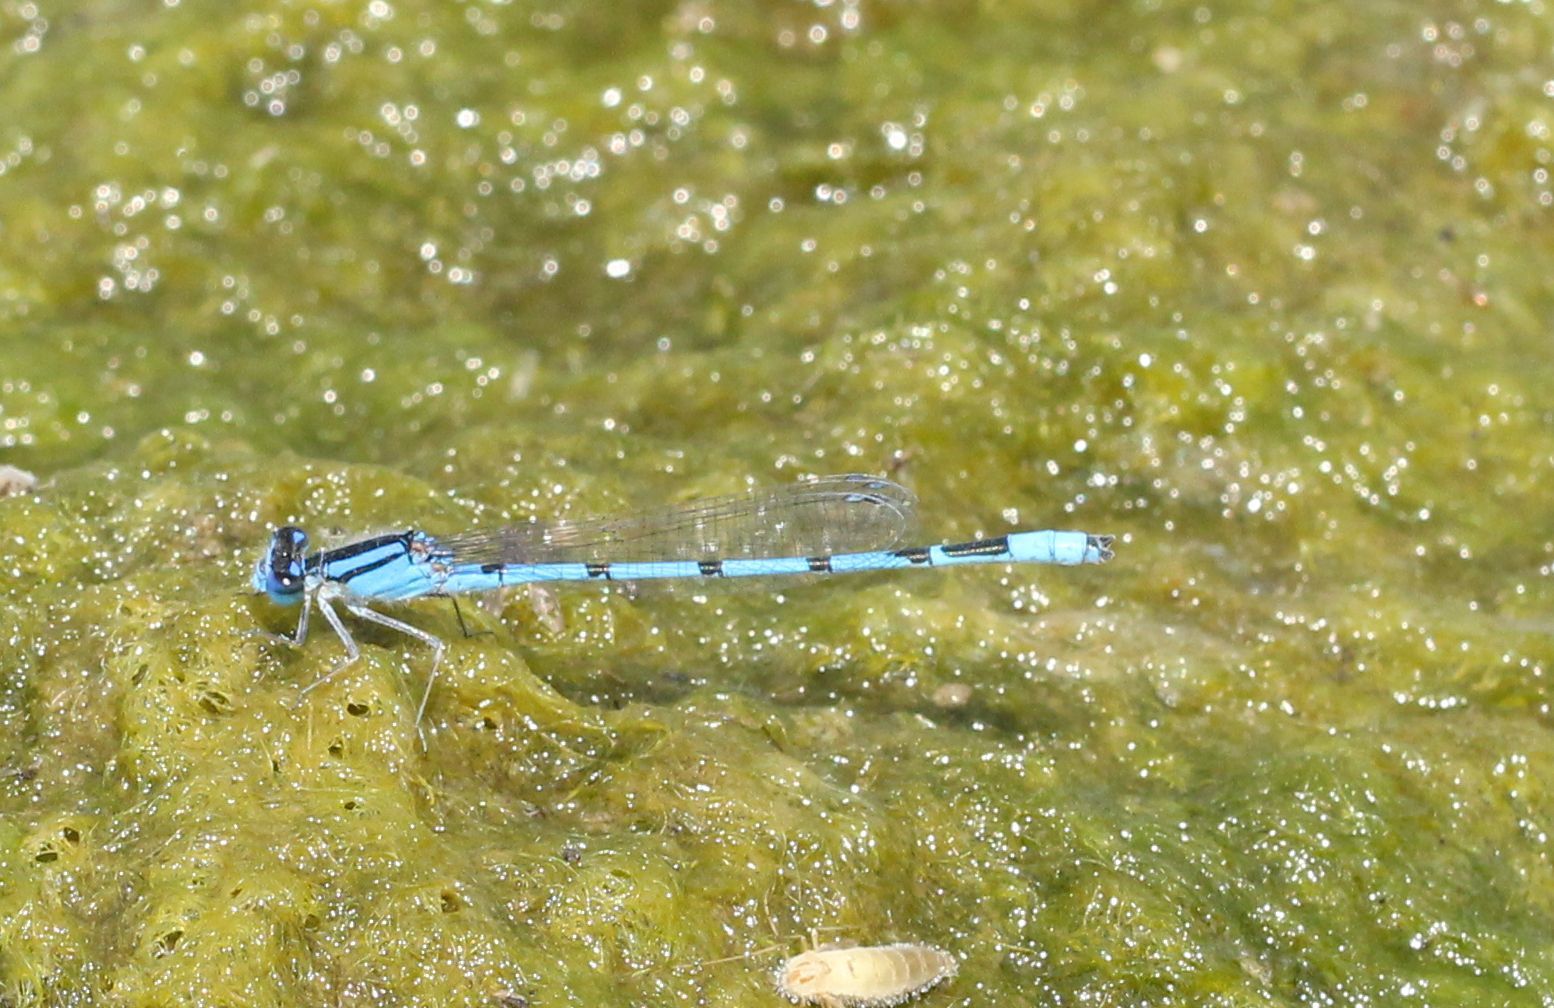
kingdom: Animalia
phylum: Arthropoda
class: Insecta
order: Odonata
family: Coenagrionidae
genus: Enallagma
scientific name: Enallagma civile
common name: Damselfly
